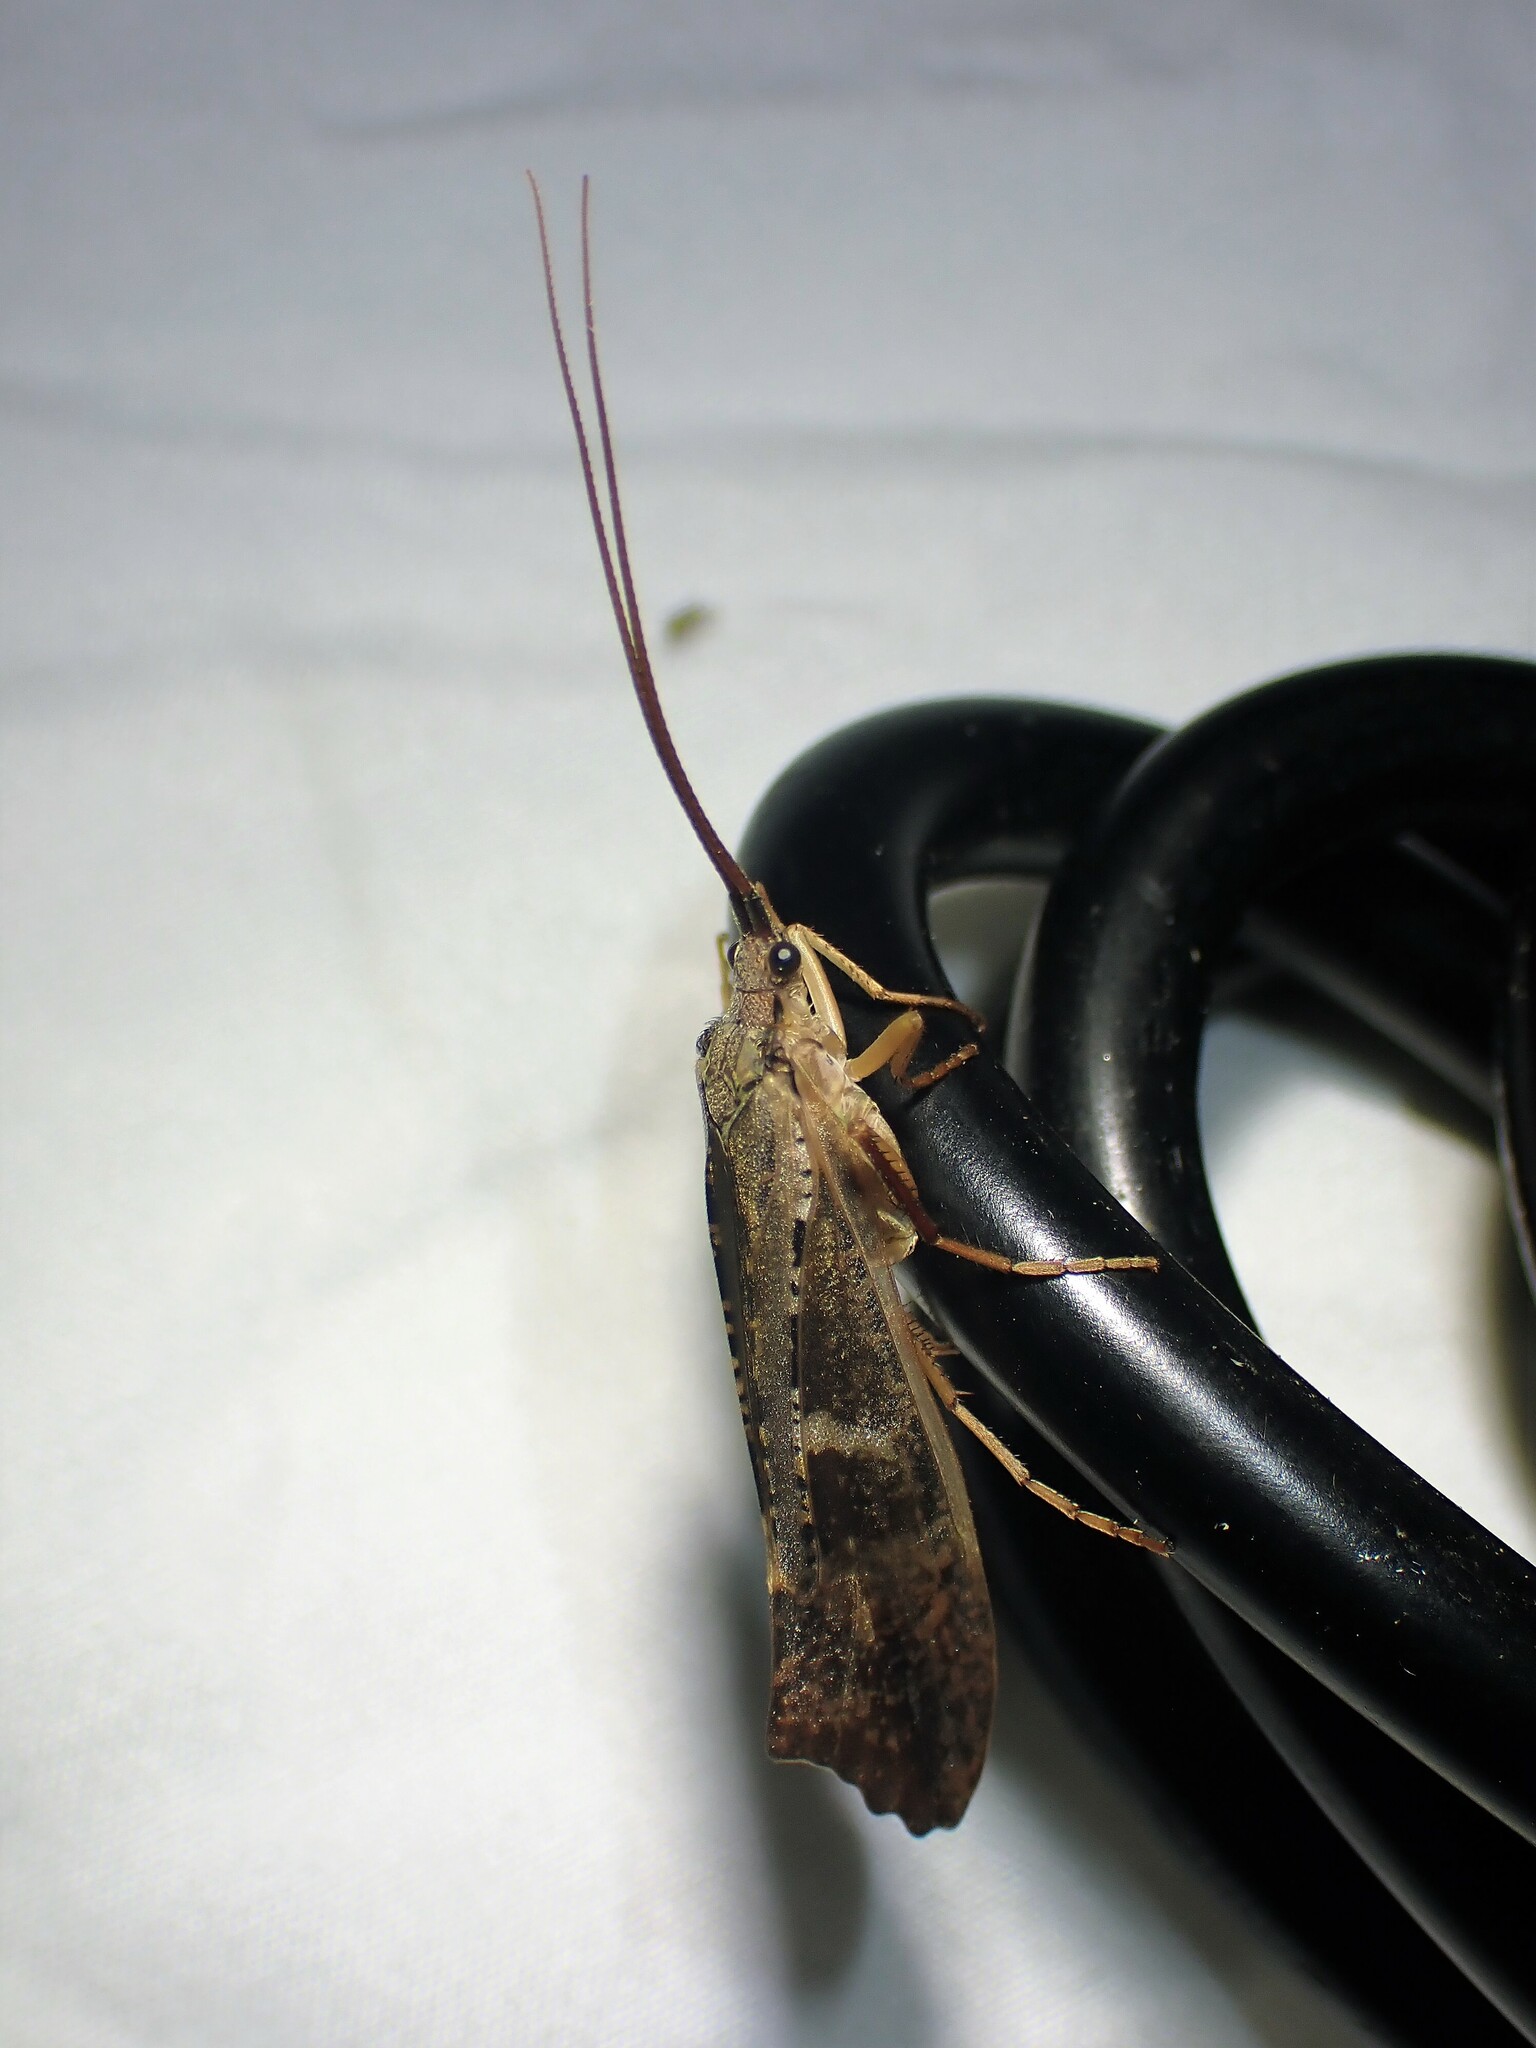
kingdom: Animalia
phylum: Arthropoda
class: Insecta
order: Trichoptera
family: Limnephilidae
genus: Nemotaulius
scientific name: Nemotaulius hostilis
